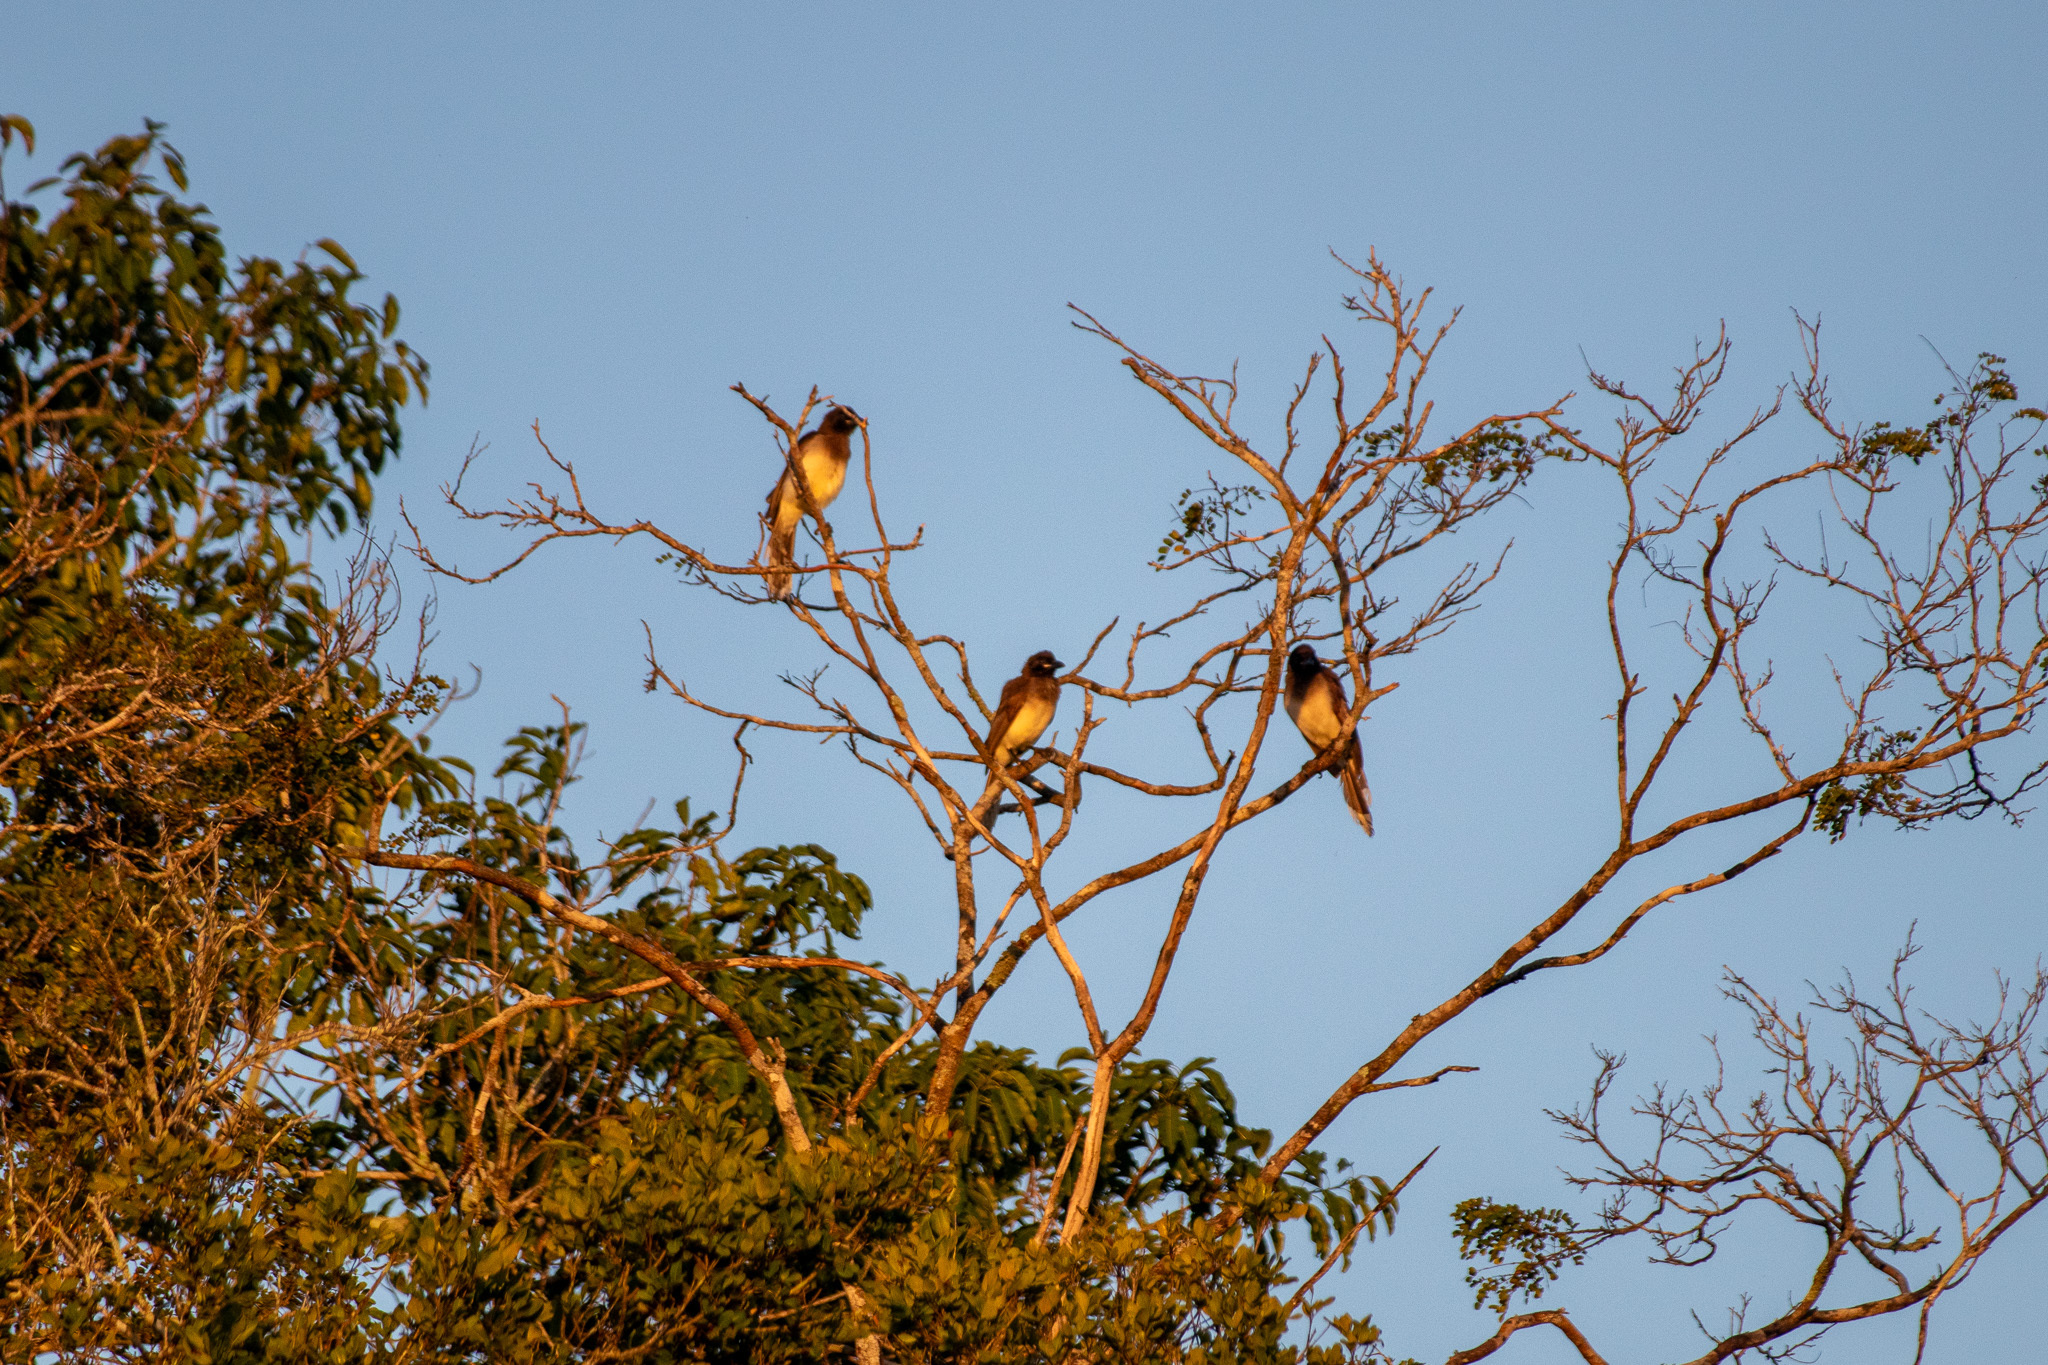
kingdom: Animalia
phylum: Chordata
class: Aves
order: Passeriformes
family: Corvidae
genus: Psilorhinus
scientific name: Psilorhinus morio
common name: Brown jay
